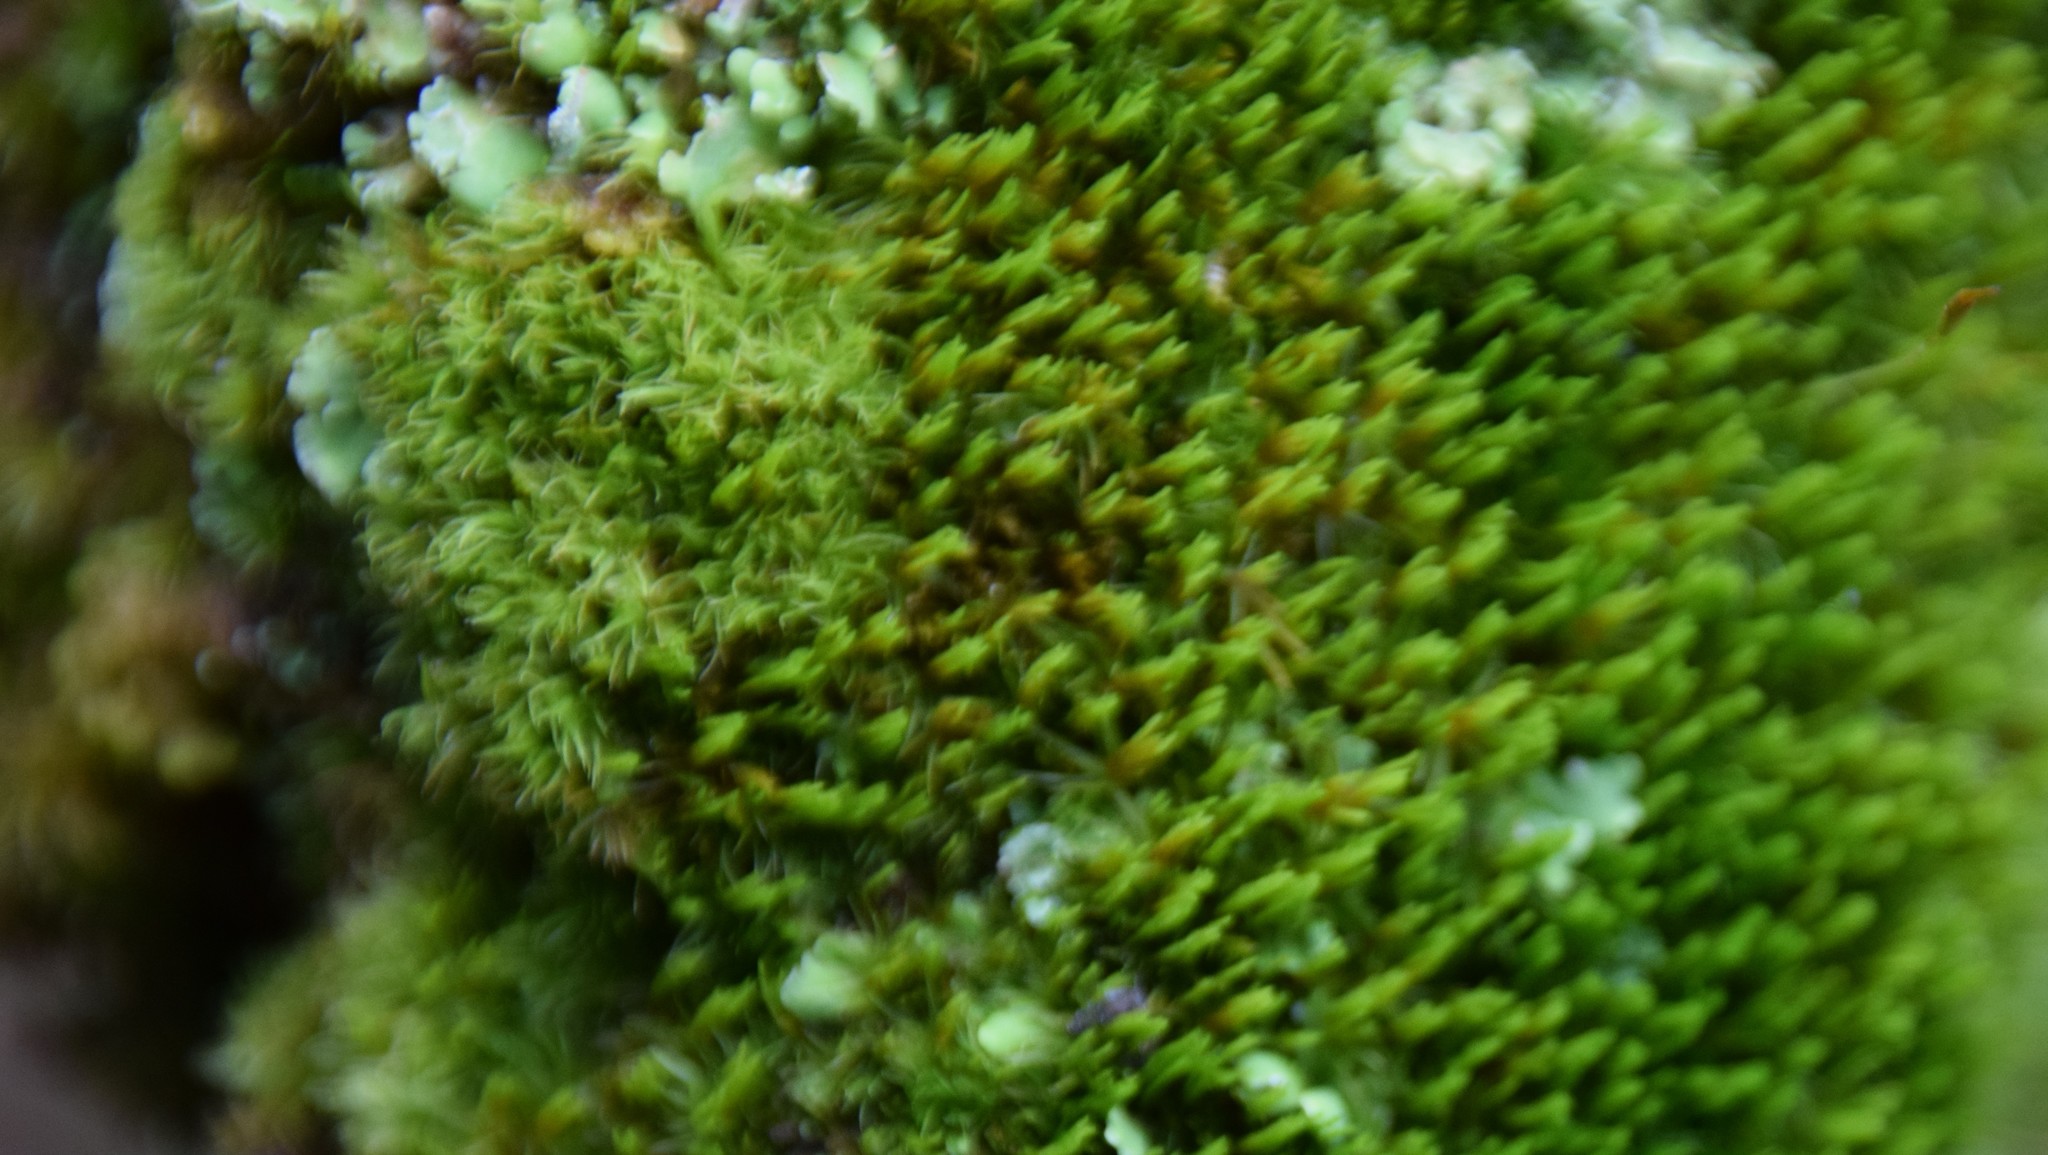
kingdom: Plantae
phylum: Bryophyta
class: Bryopsida
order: Dicranales
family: Dicranaceae
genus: Orthodicranum
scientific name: Orthodicranum flagellare
